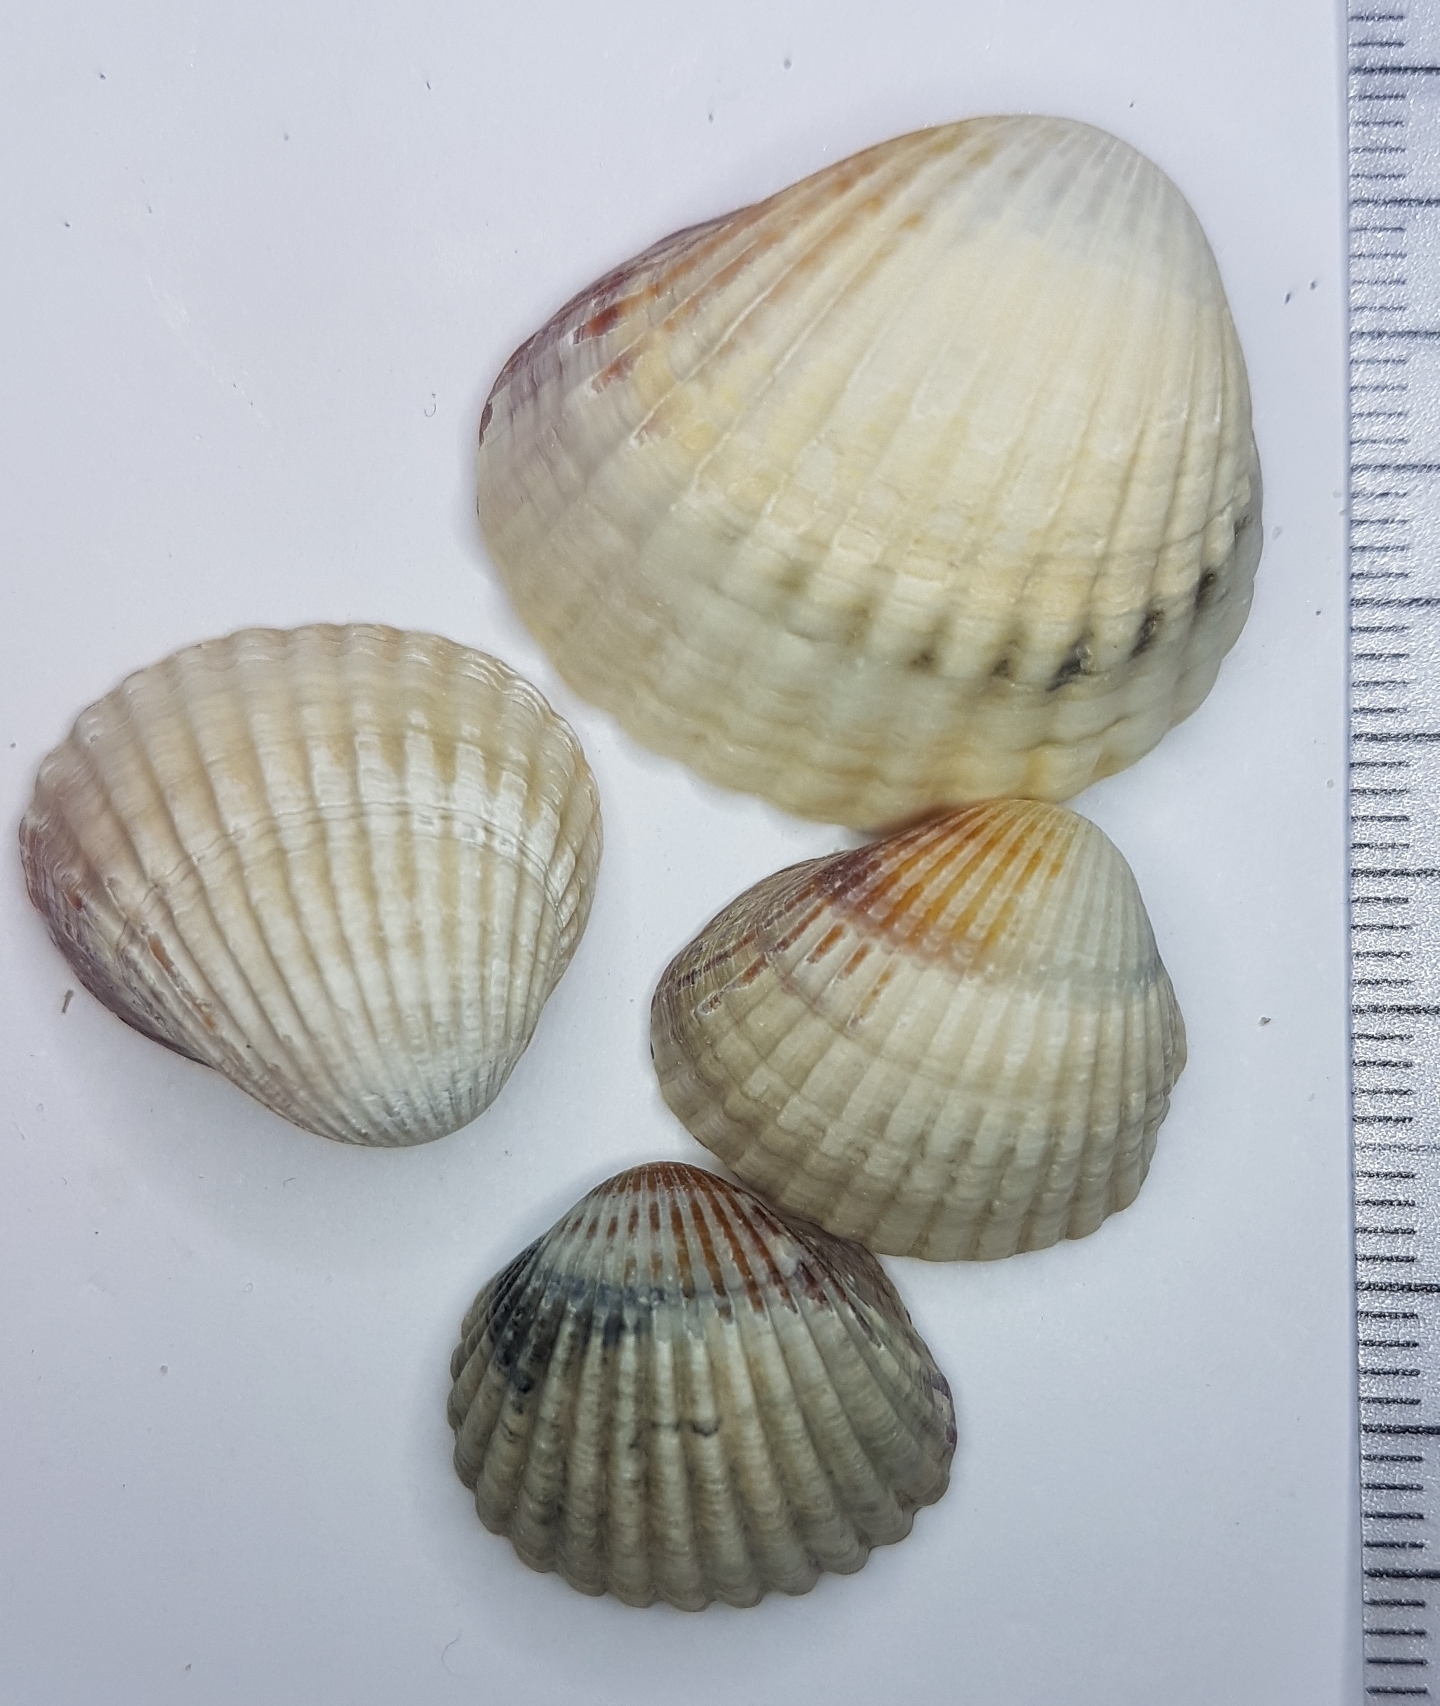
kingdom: Animalia
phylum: Mollusca
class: Bivalvia
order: Cardiida
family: Cardiidae
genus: Cerastoderma
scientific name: Cerastoderma glaucum
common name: Lagoon cockle
